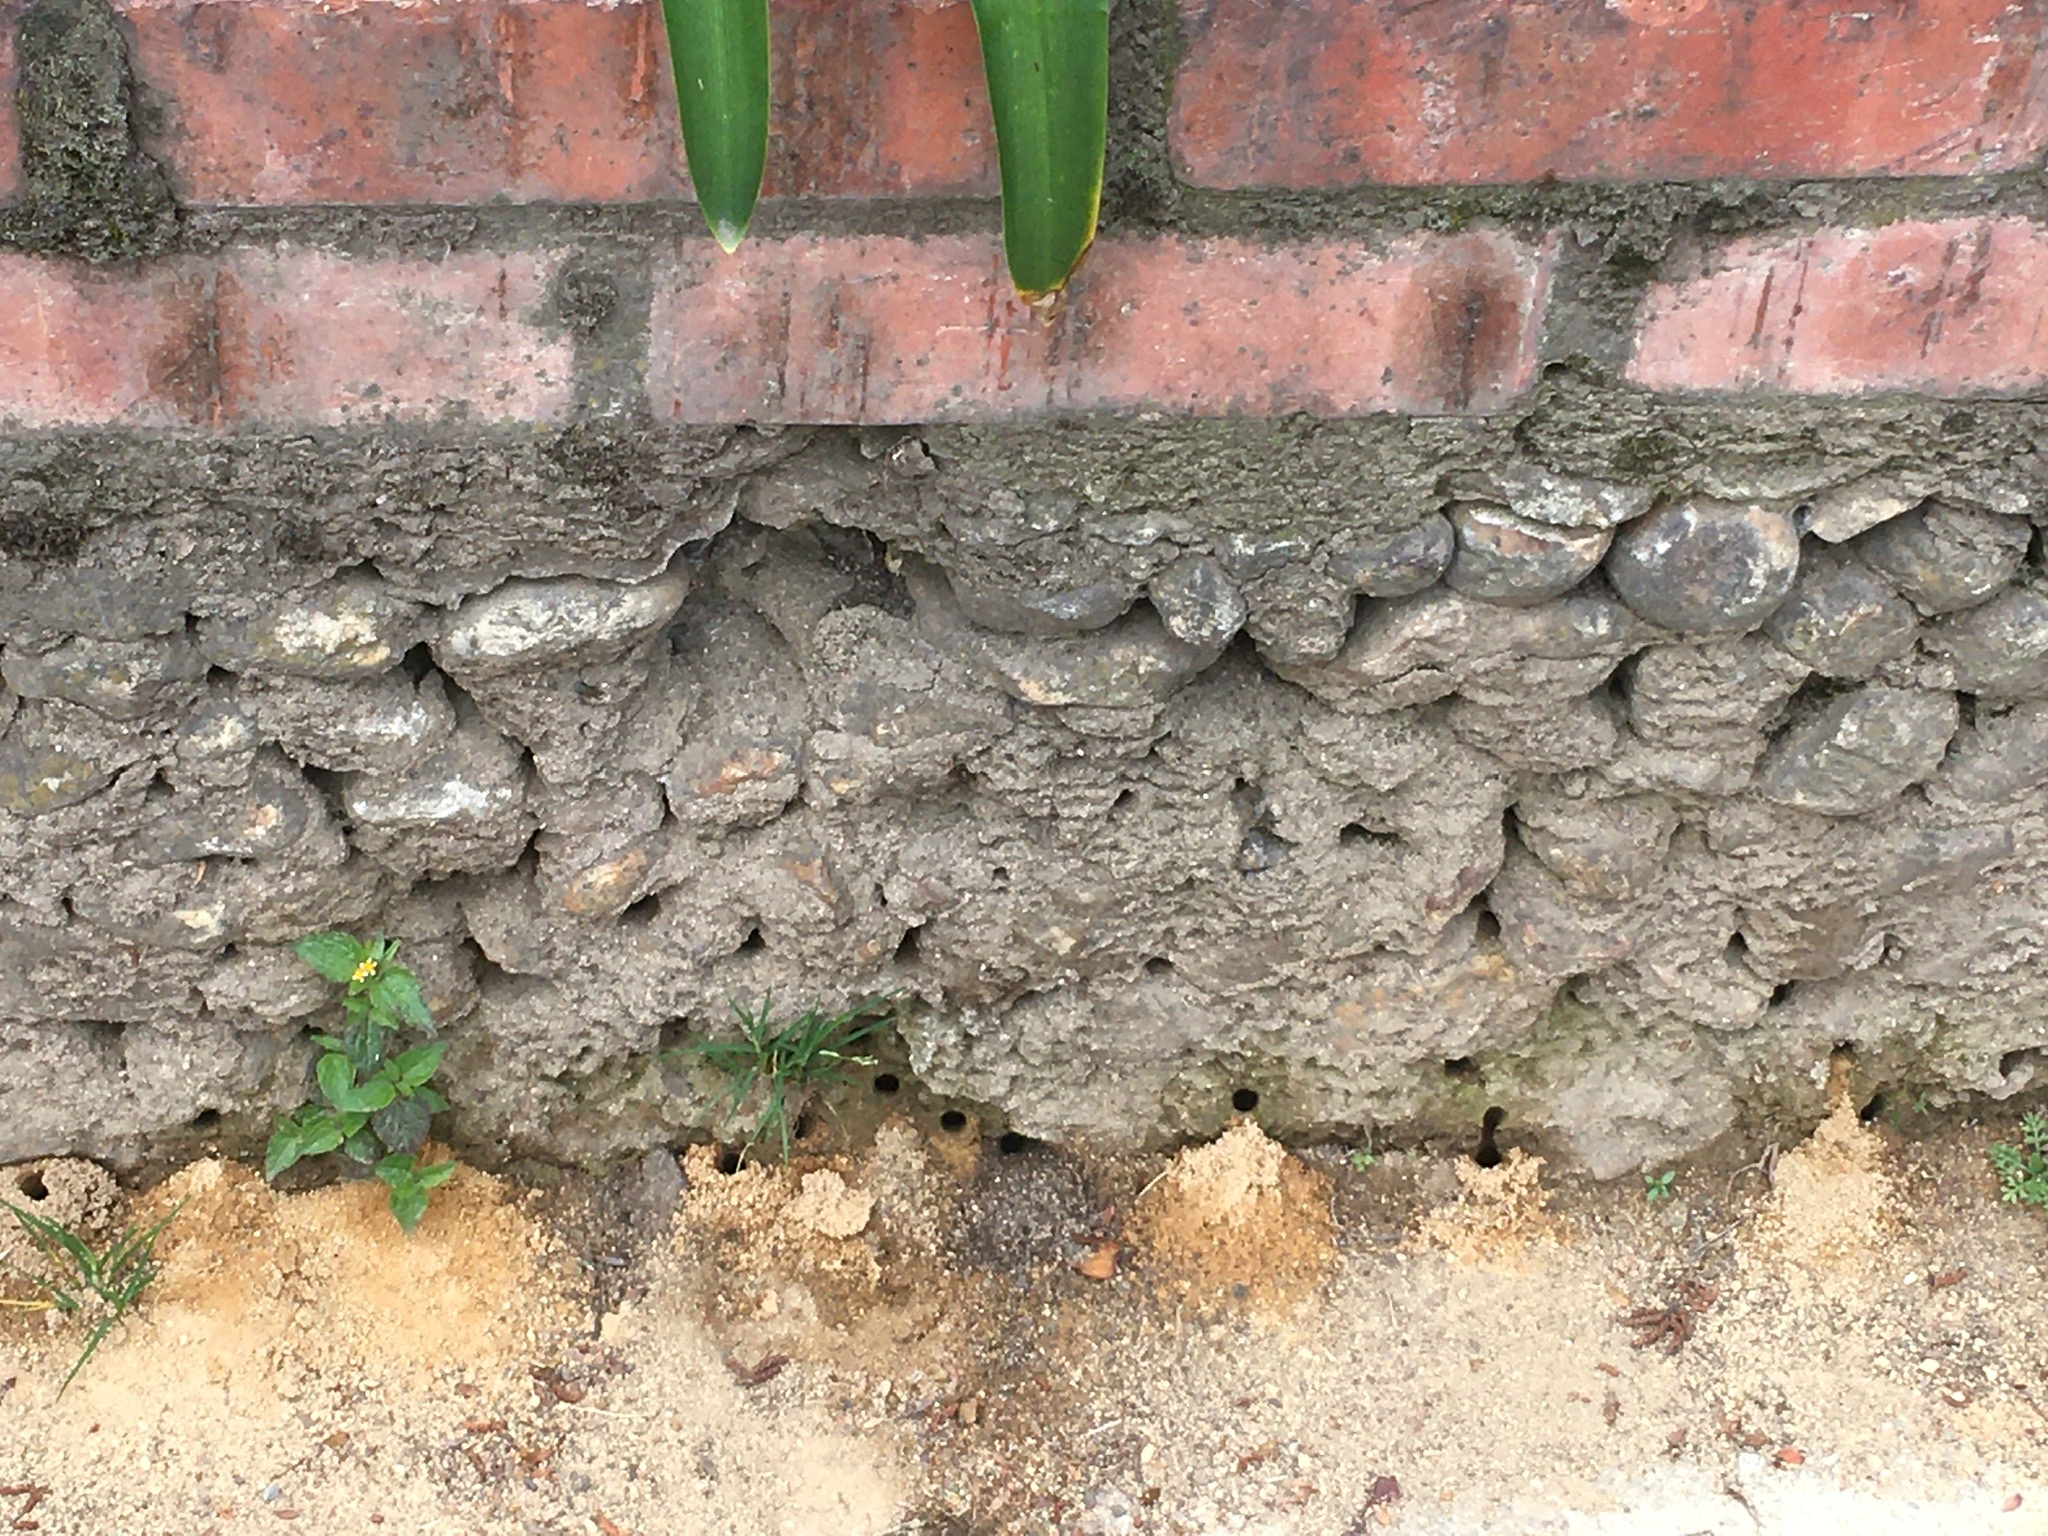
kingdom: Animalia
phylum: Arthropoda
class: Insecta
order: Hymenoptera
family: Apidae
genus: Thygater
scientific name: Thygater aethiops
